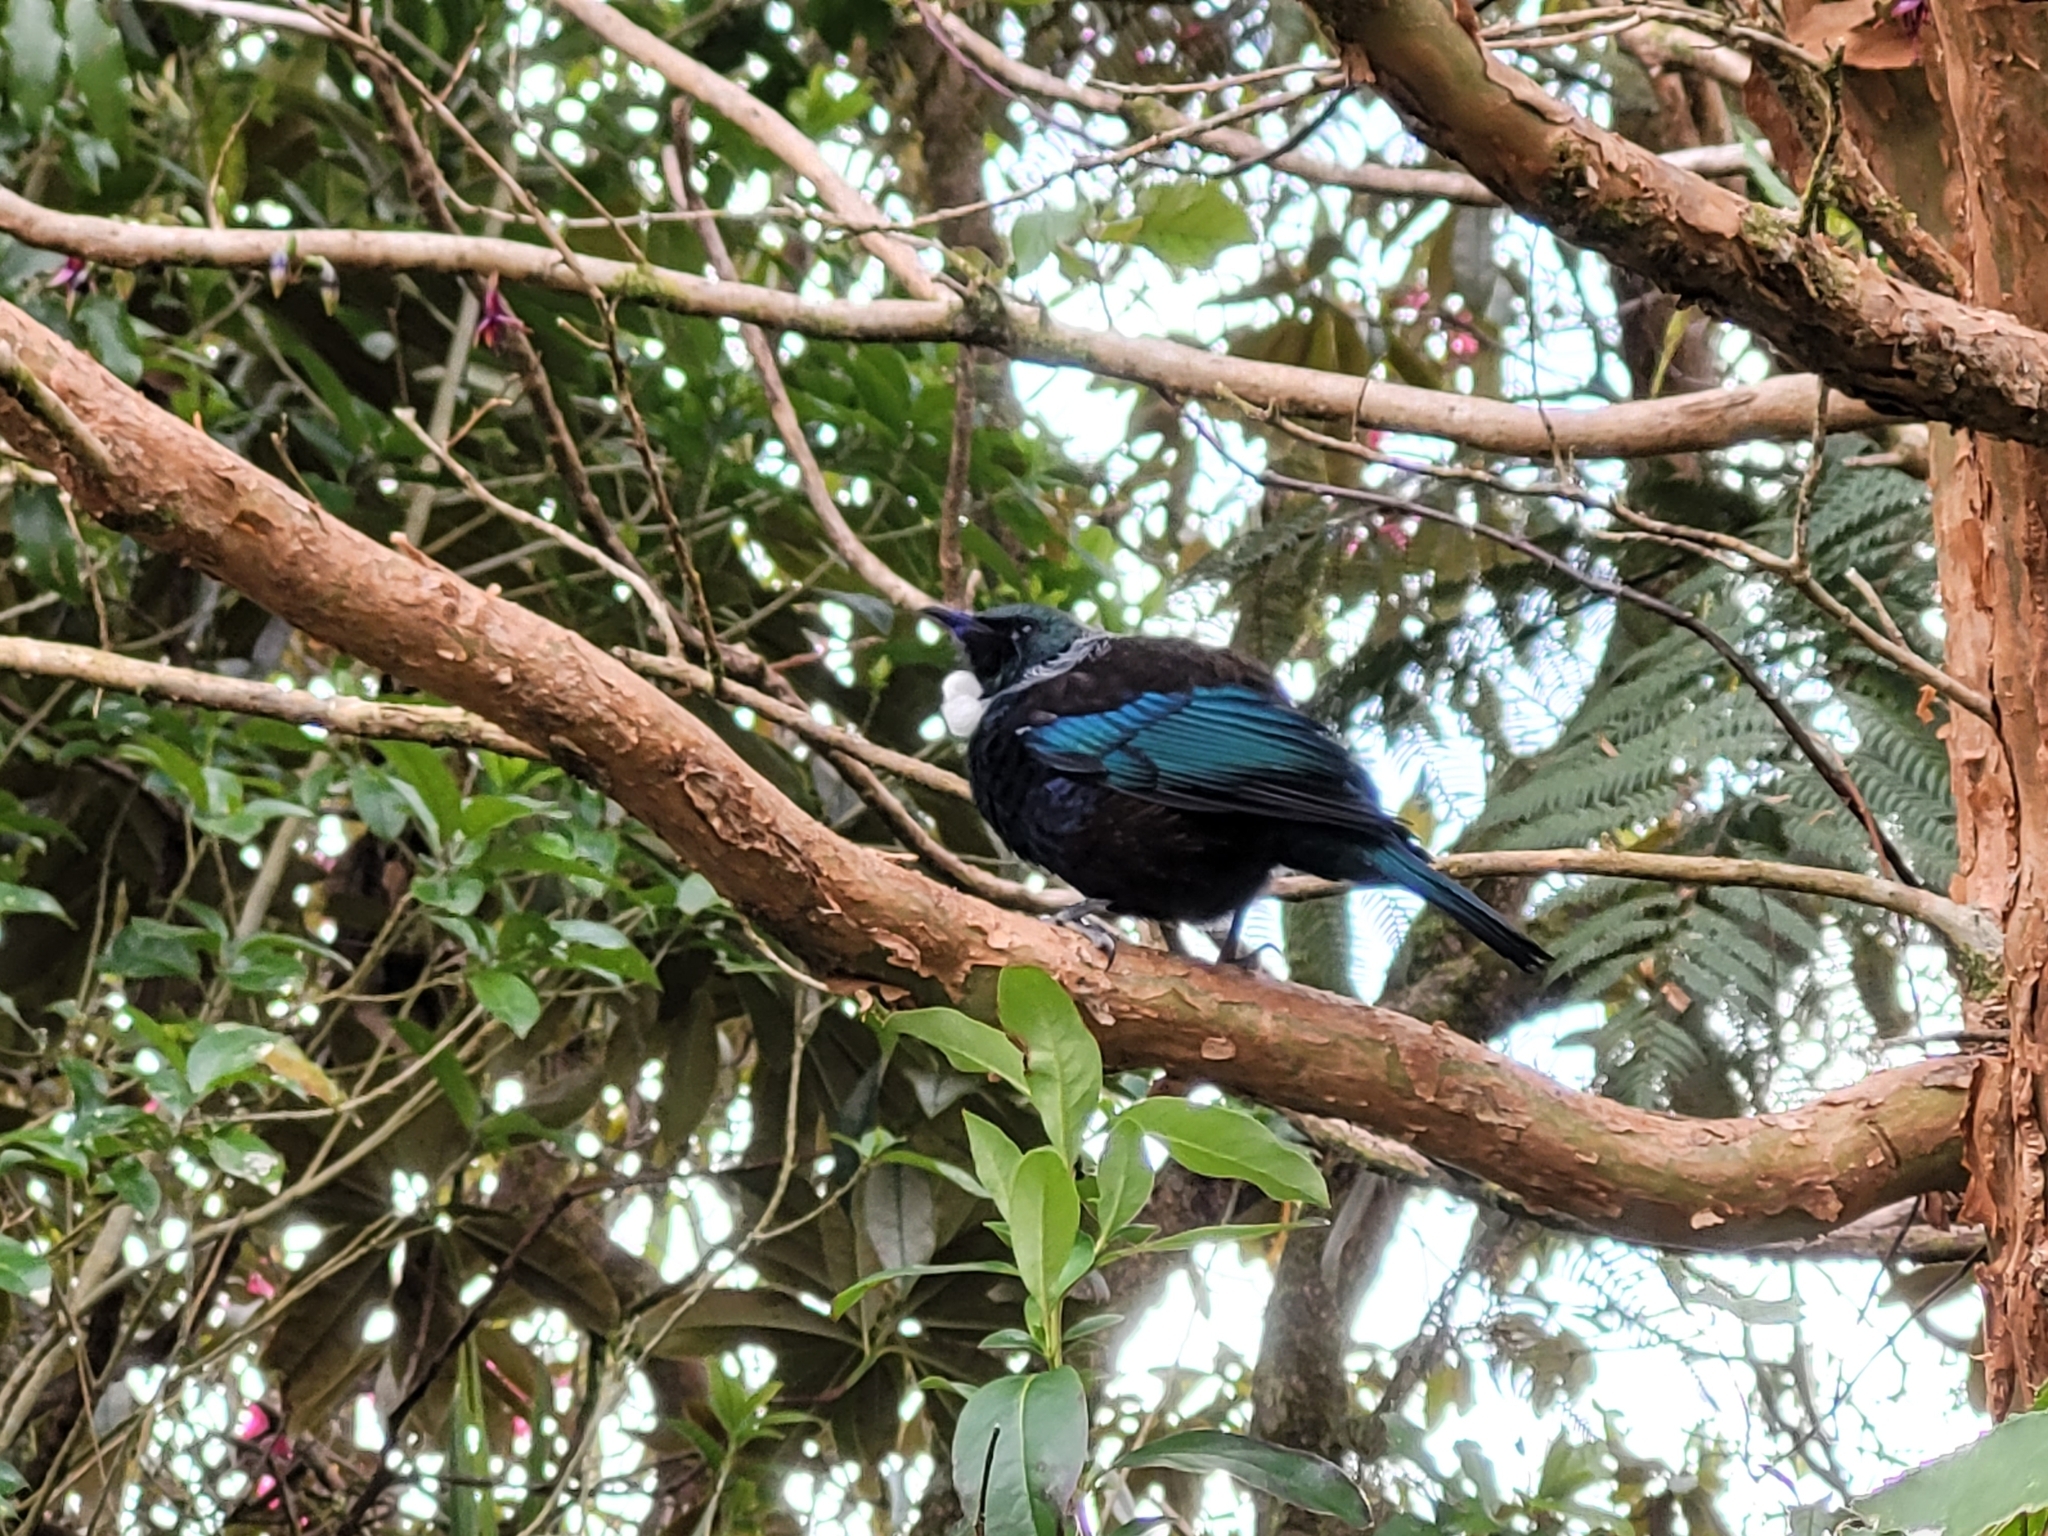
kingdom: Animalia
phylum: Chordata
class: Aves
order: Passeriformes
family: Meliphagidae
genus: Prosthemadera
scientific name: Prosthemadera novaeseelandiae
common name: Tui
